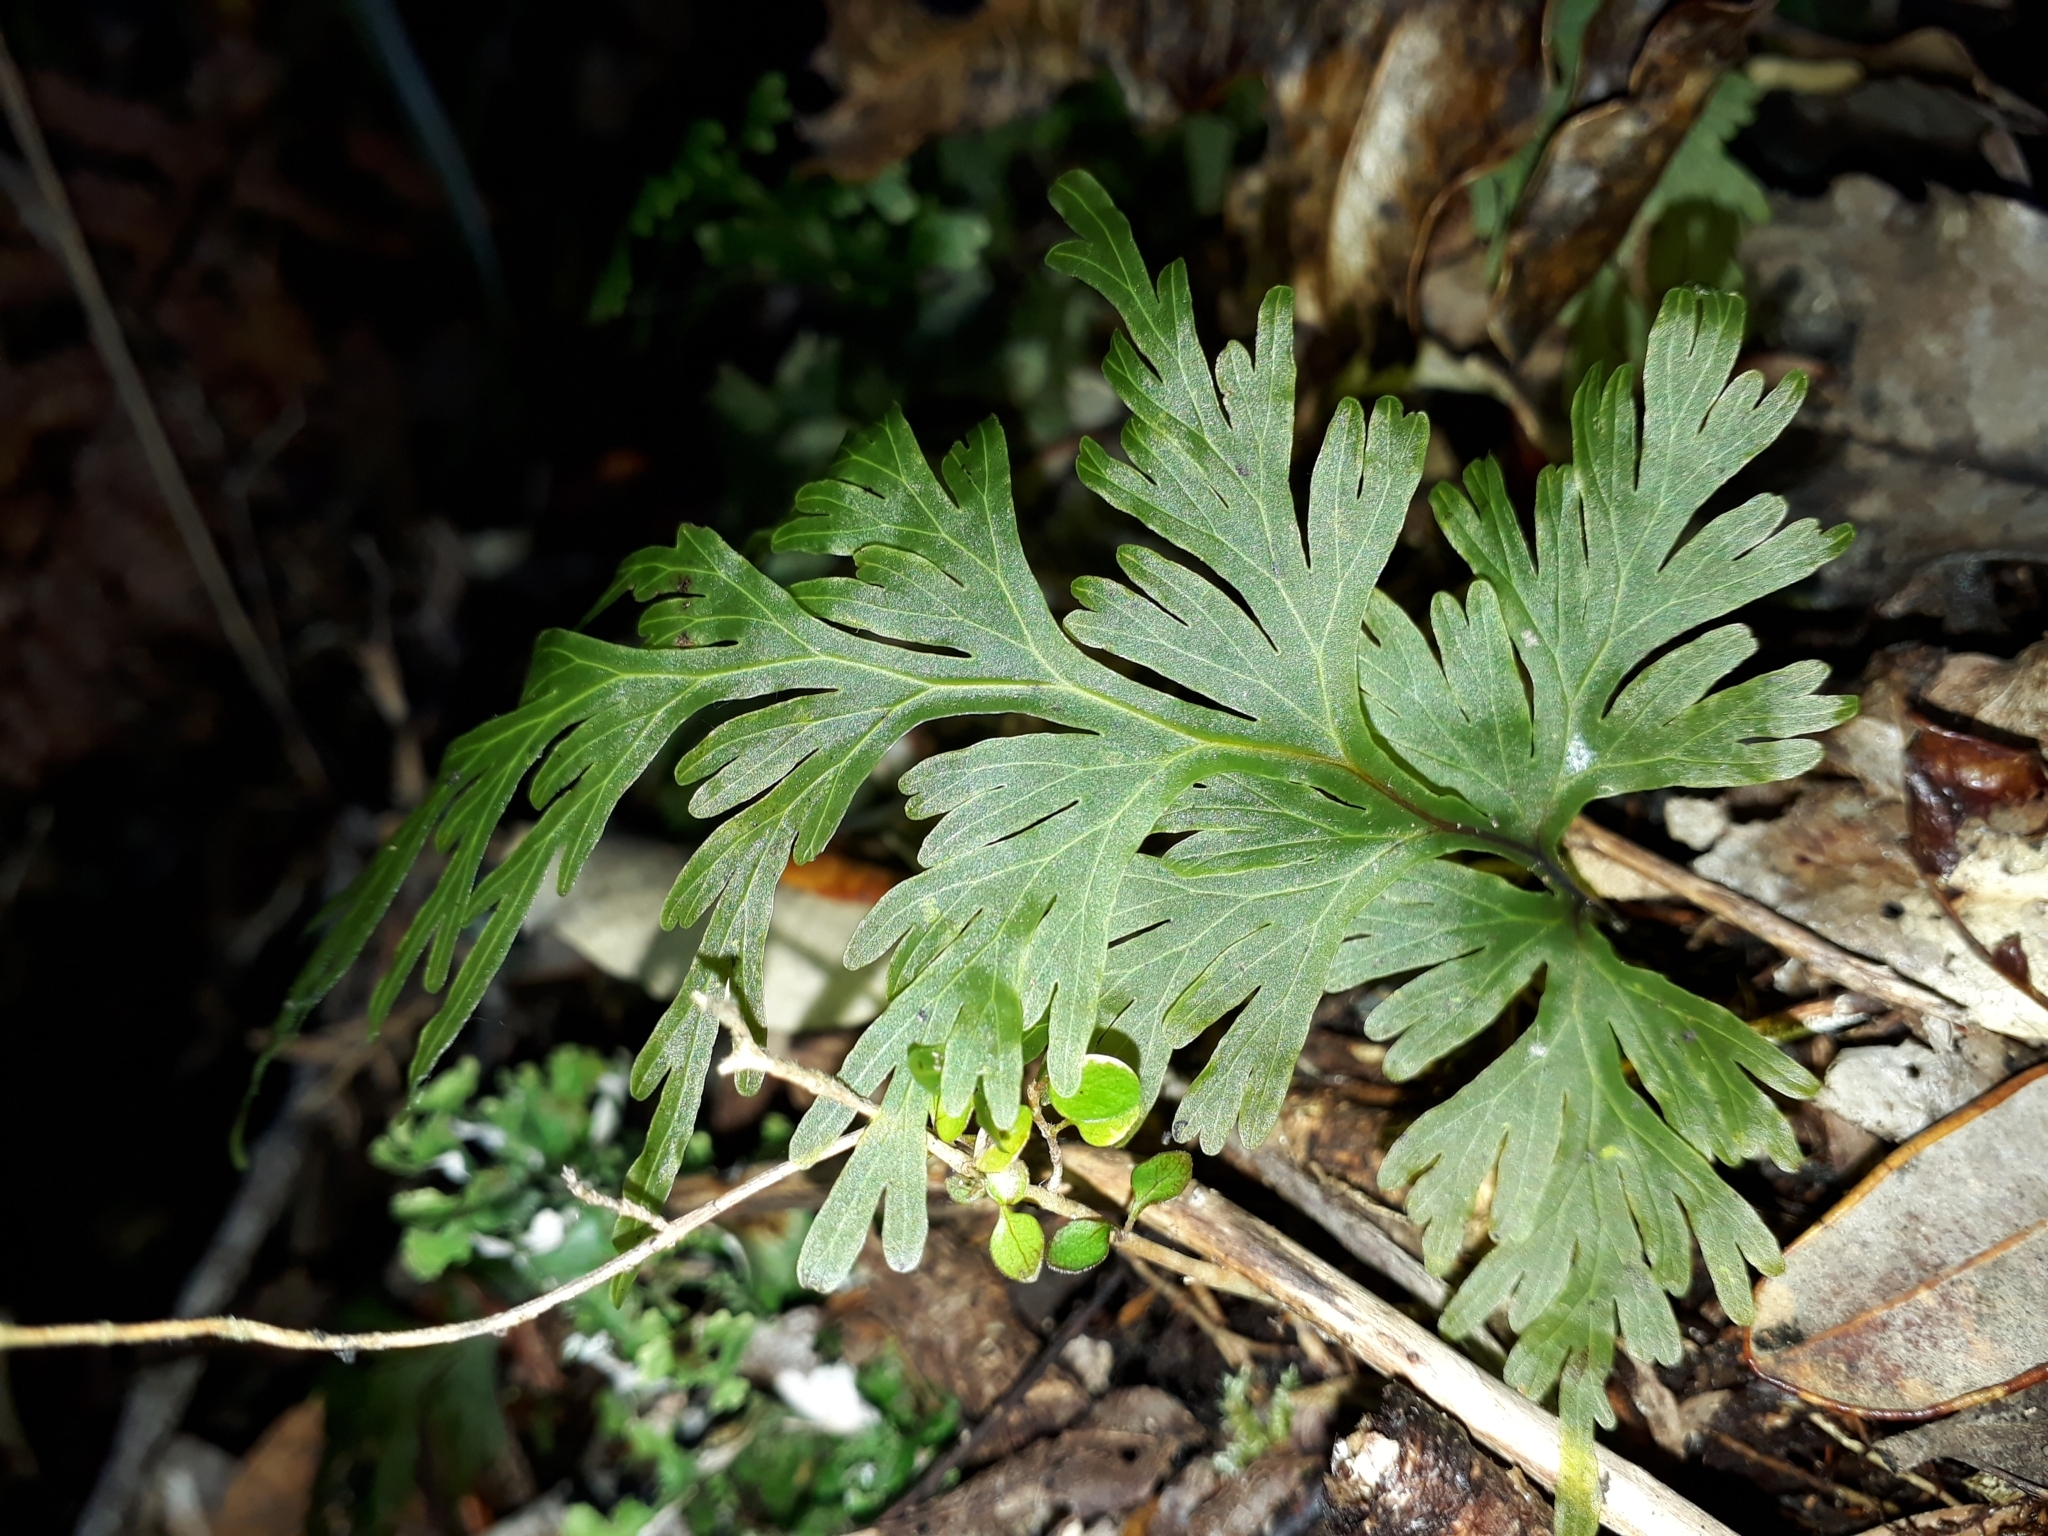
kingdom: Plantae
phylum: Tracheophyta
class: Polypodiopsida
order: Hymenophyllales
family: Hymenophyllaceae
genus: Hymenophyllum
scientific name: Hymenophyllum dilatatum
